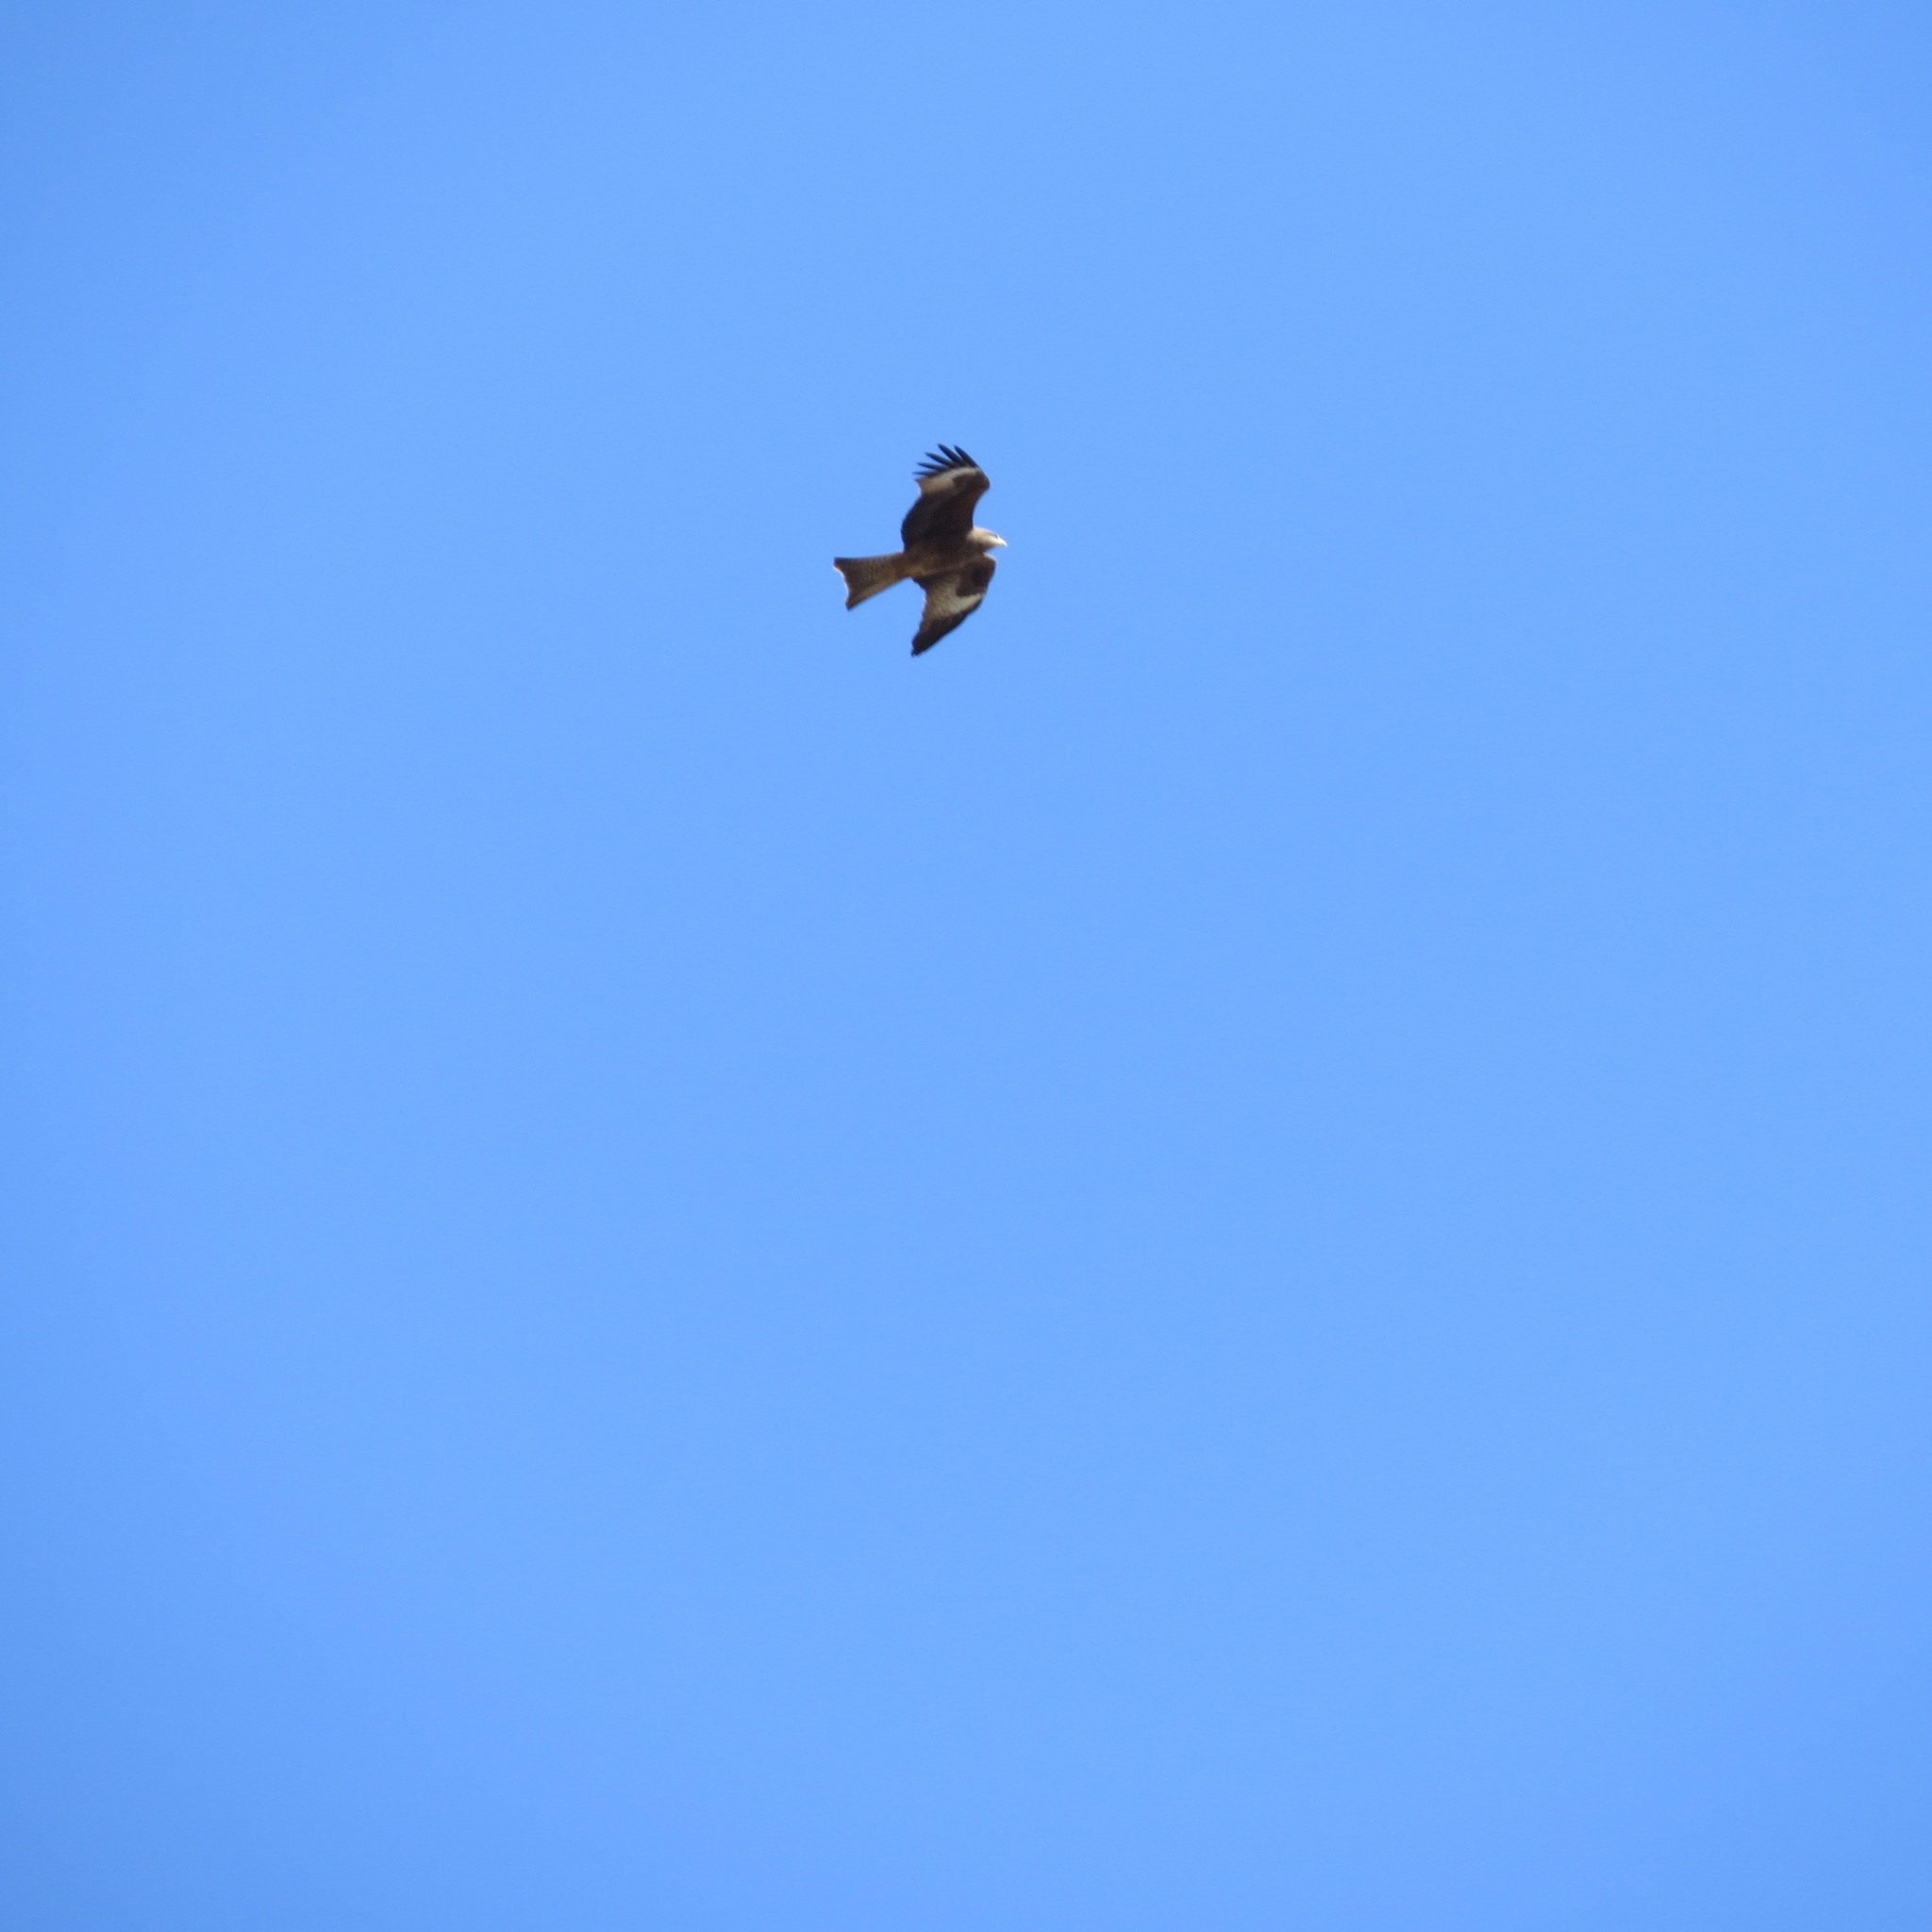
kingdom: Animalia
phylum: Chordata
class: Aves
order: Accipitriformes
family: Accipitridae
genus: Milvus
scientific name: Milvus migrans
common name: Black kite
